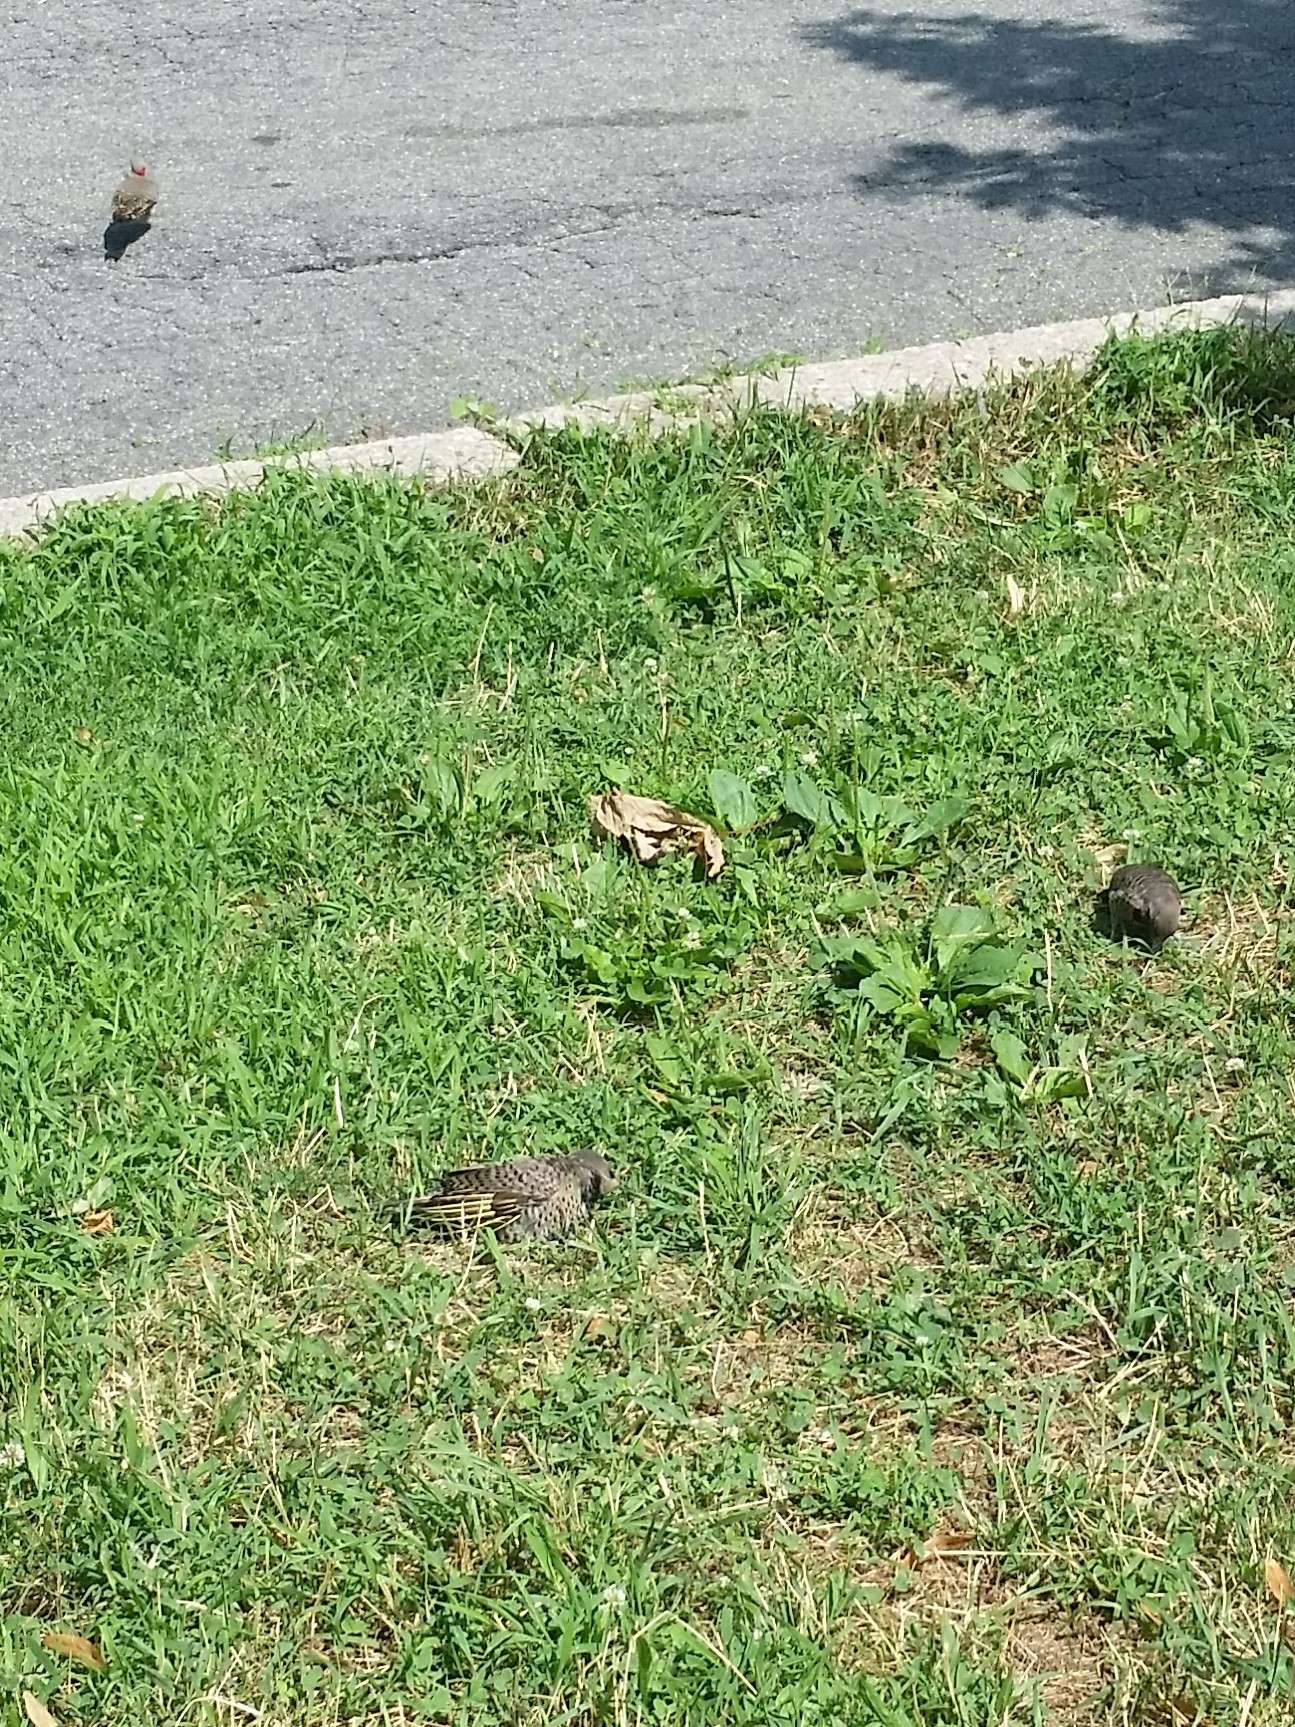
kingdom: Animalia
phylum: Chordata
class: Aves
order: Piciformes
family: Picidae
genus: Colaptes
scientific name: Colaptes auratus
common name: Northern flicker
